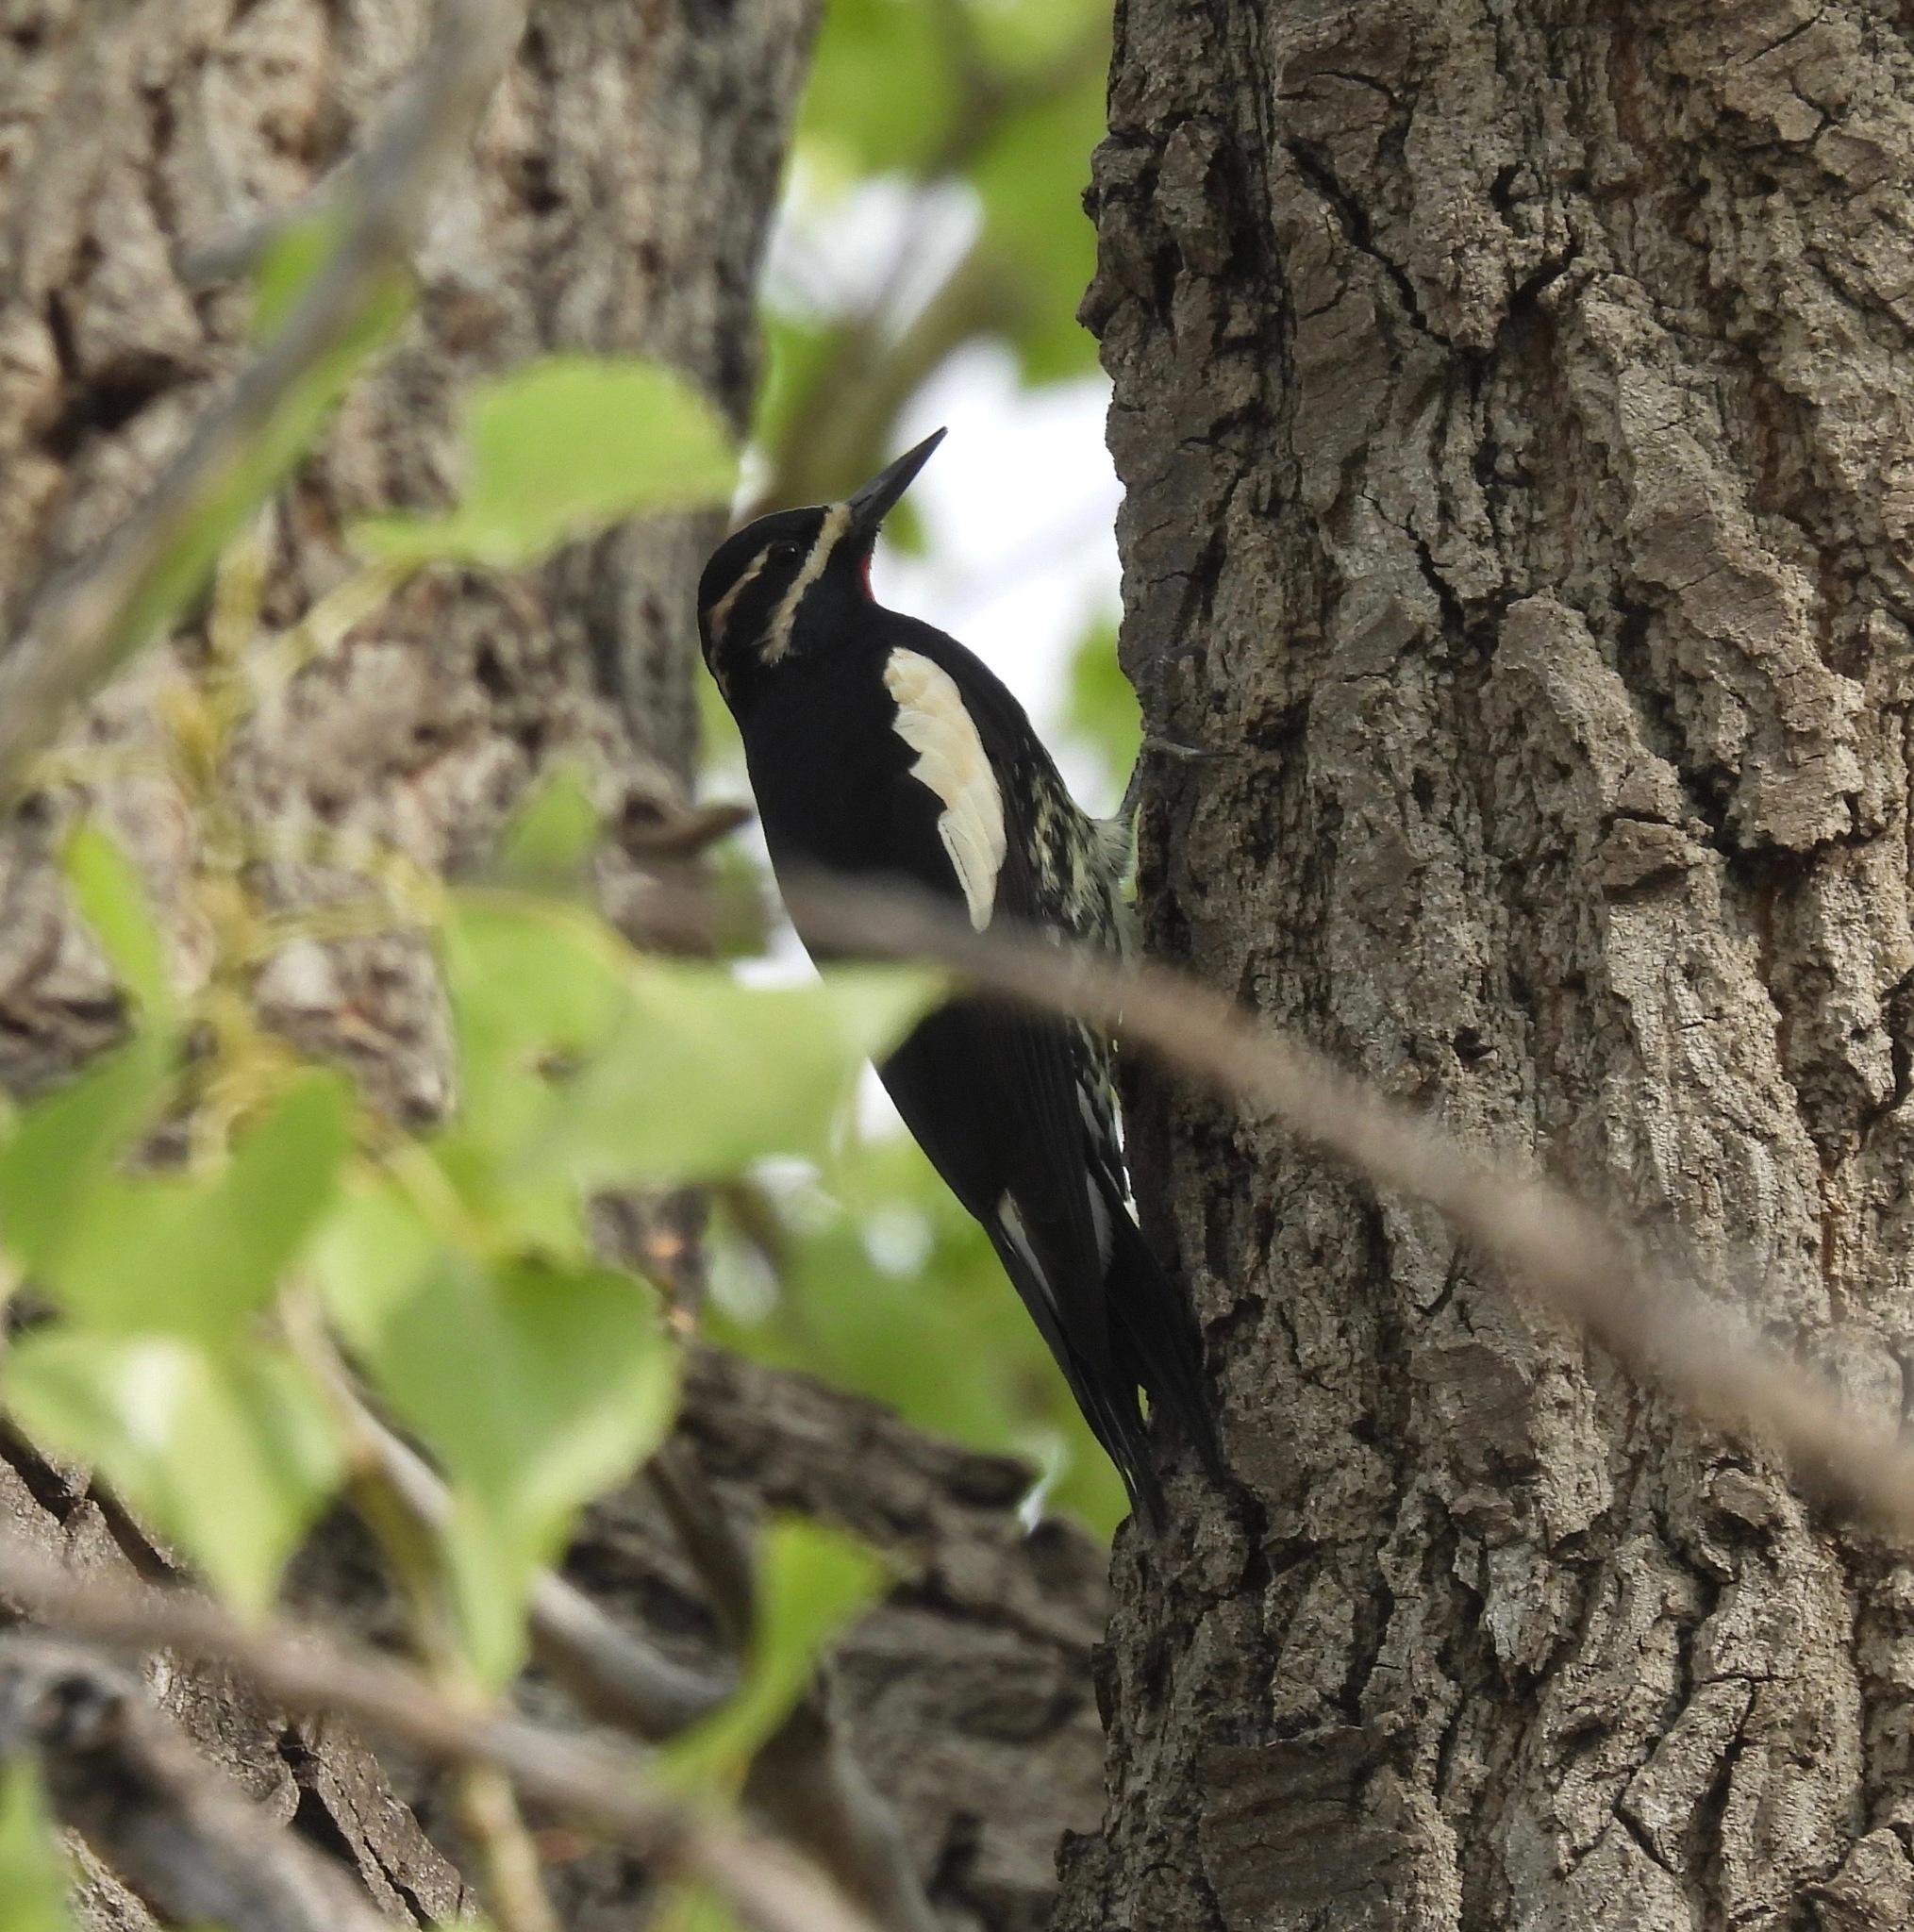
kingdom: Animalia
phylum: Chordata
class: Aves
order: Piciformes
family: Picidae
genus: Sphyrapicus
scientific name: Sphyrapicus thyroideus
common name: Williamson's sapsucker
